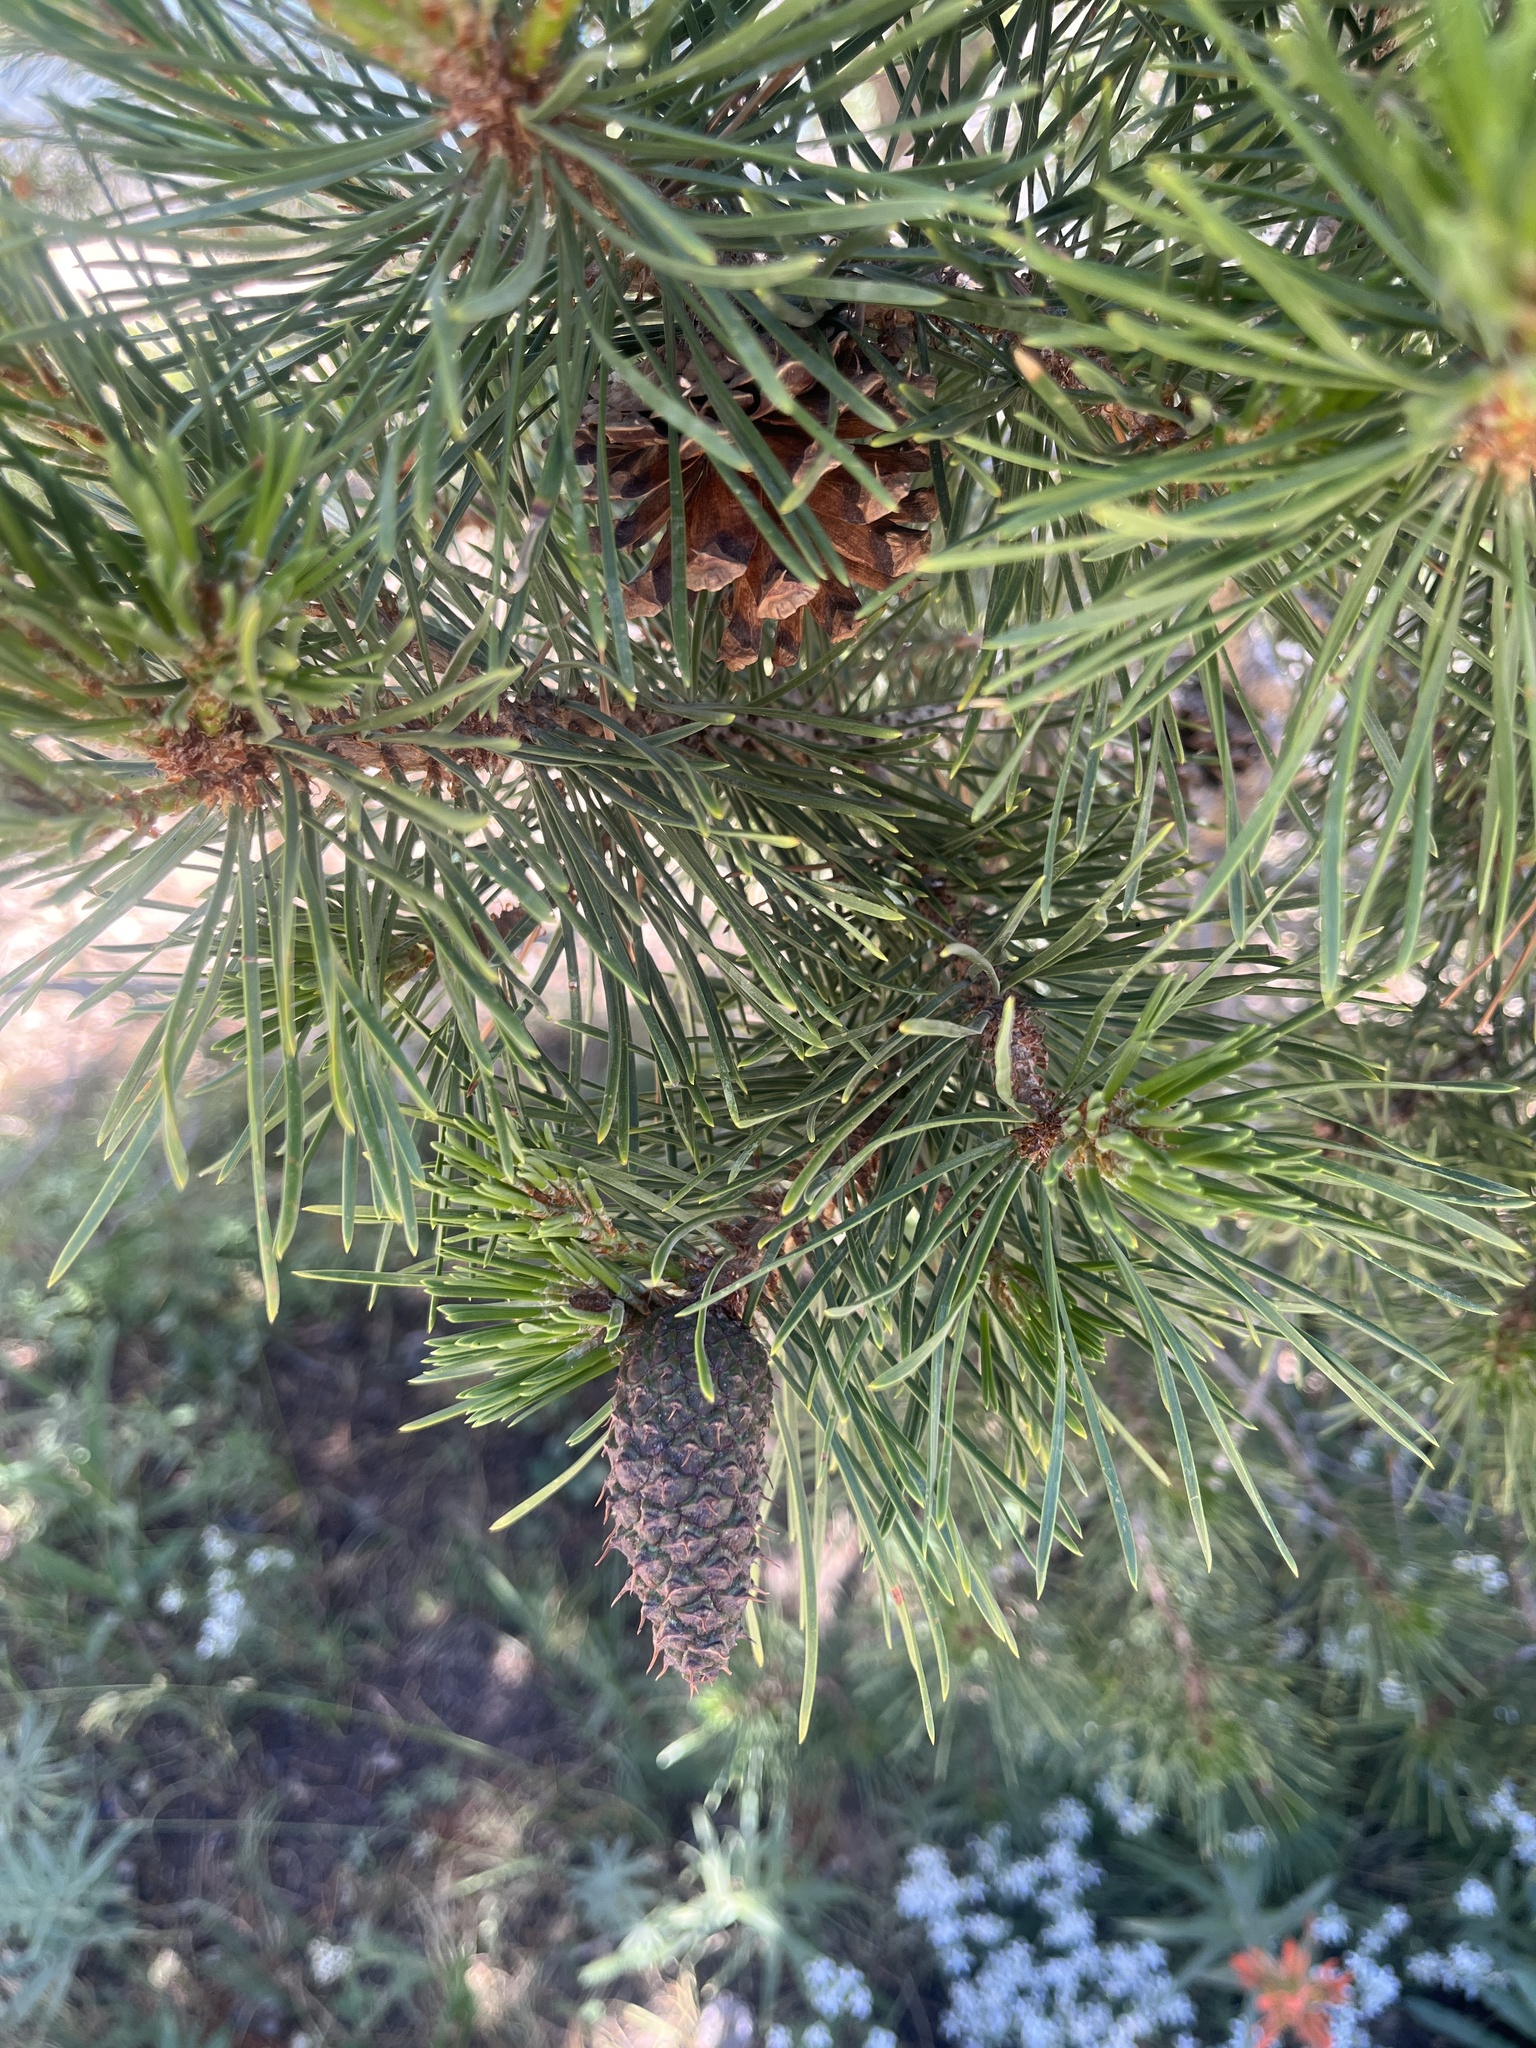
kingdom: Plantae
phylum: Tracheophyta
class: Pinopsida
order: Pinales
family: Pinaceae
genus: Pinus
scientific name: Pinus contorta
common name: Lodgepole pine
